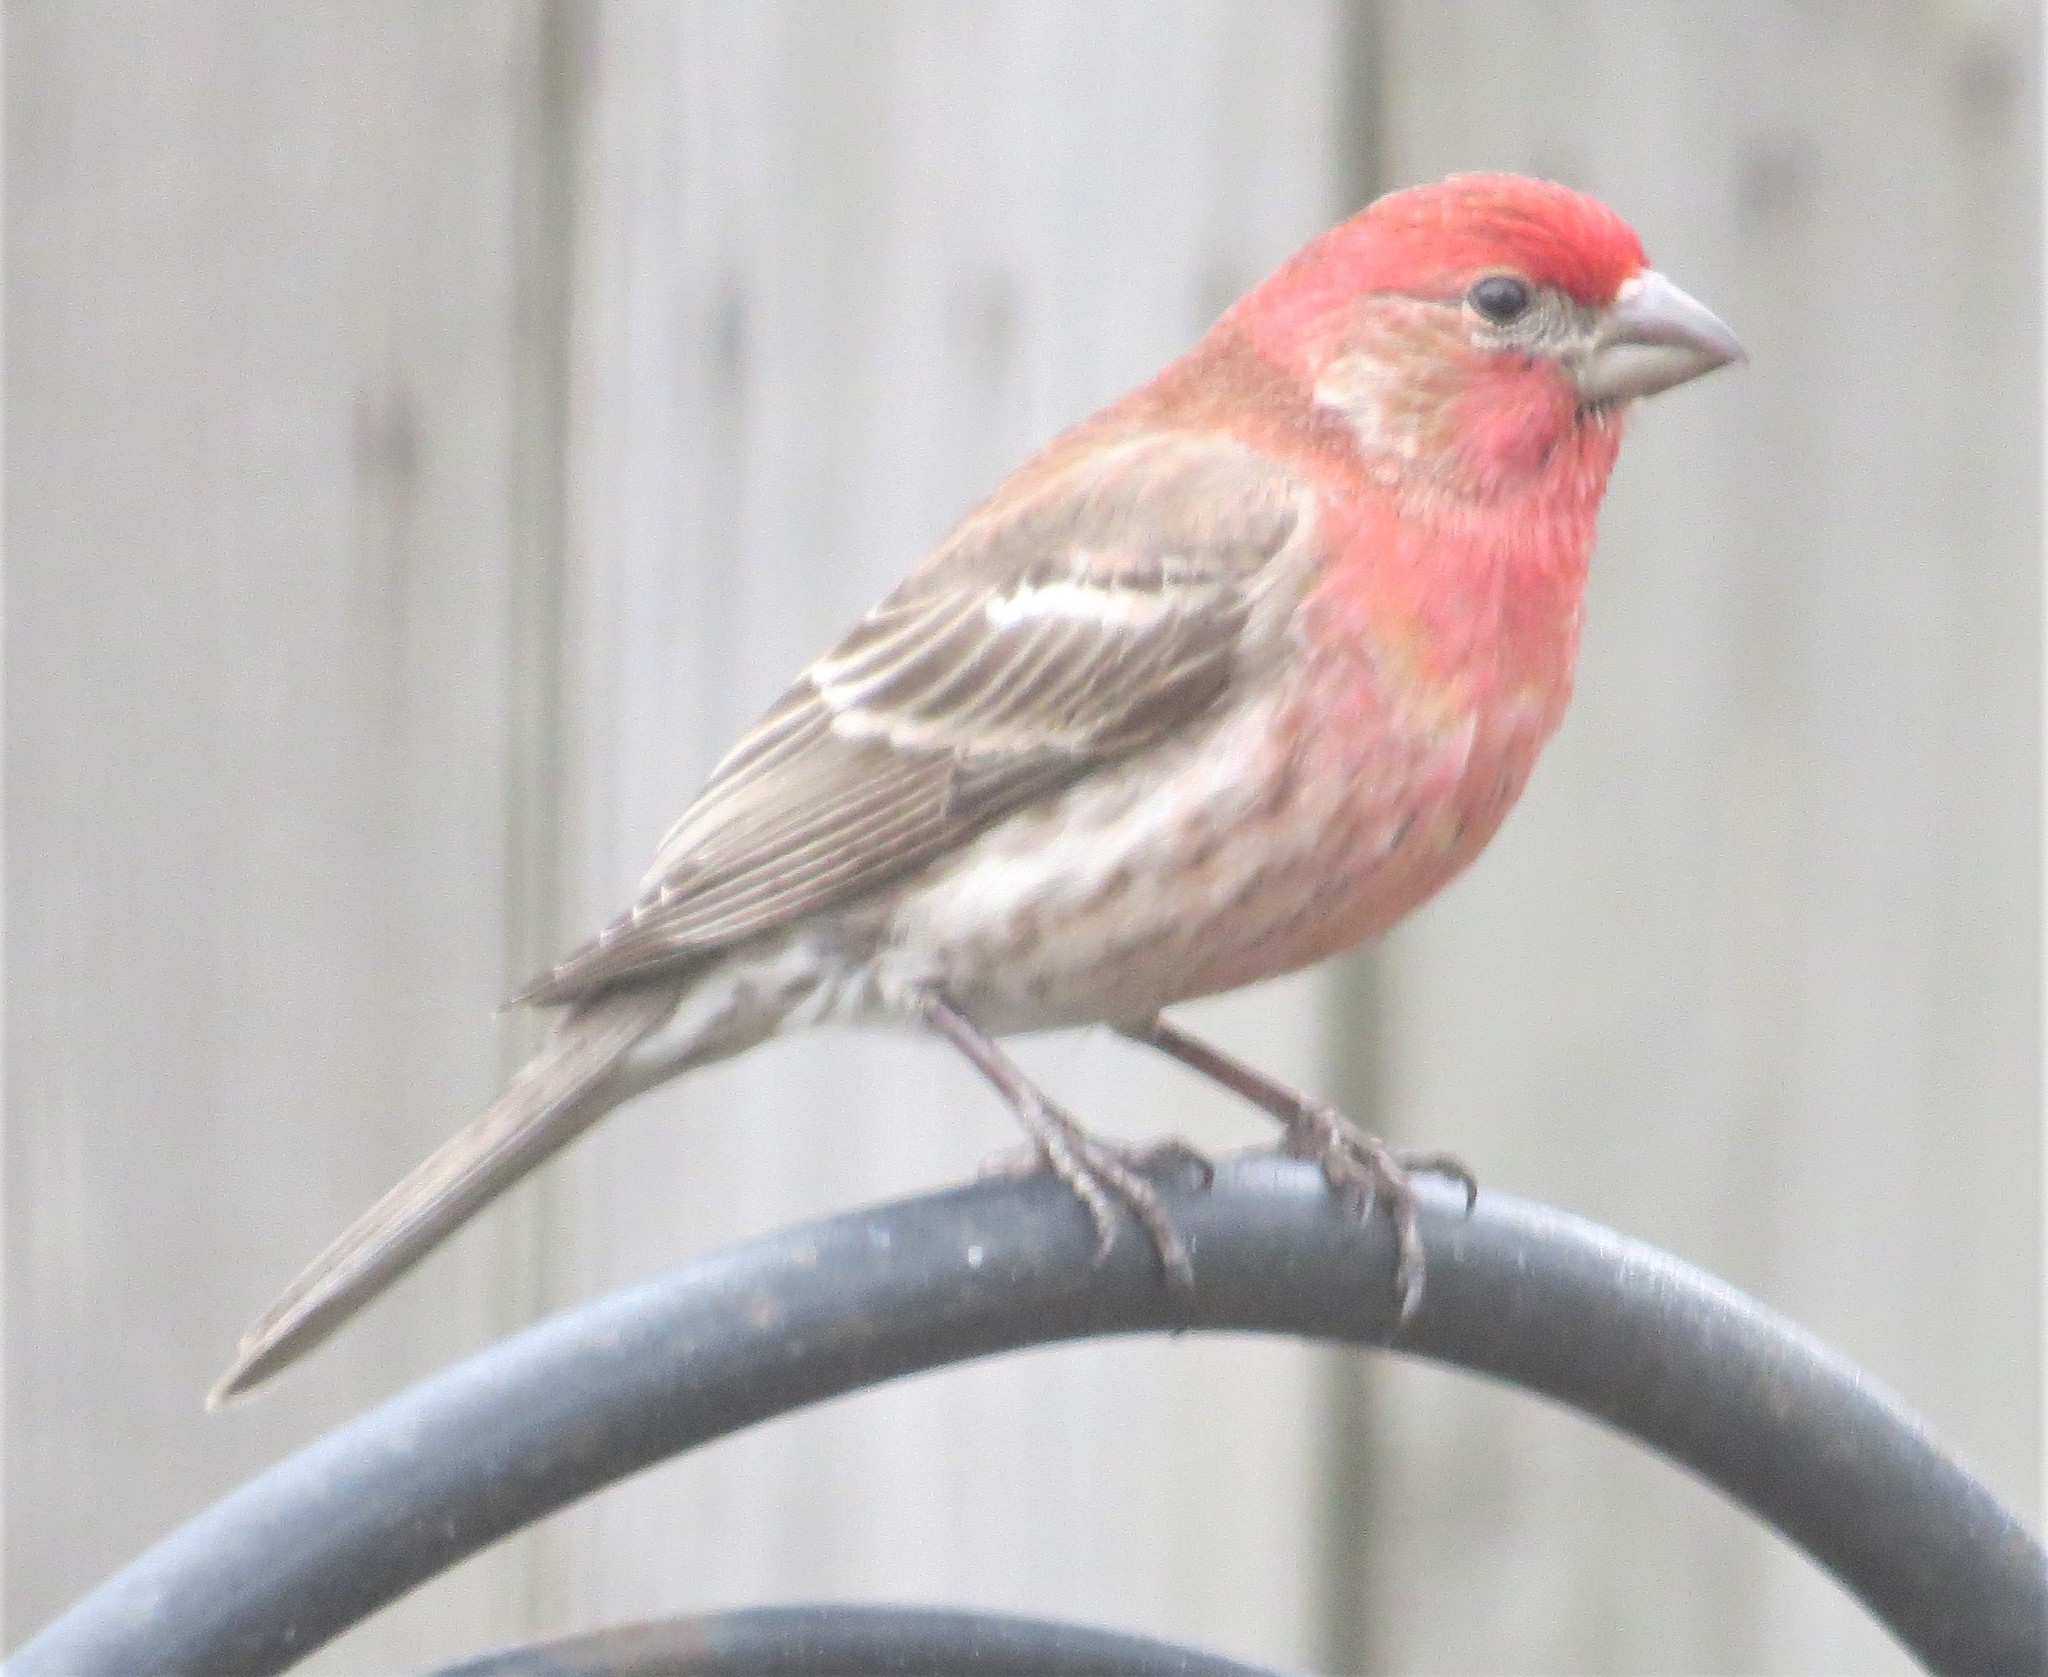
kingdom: Animalia
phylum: Chordata
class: Aves
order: Passeriformes
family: Fringillidae
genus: Haemorhous
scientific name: Haemorhous mexicanus
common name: House finch
